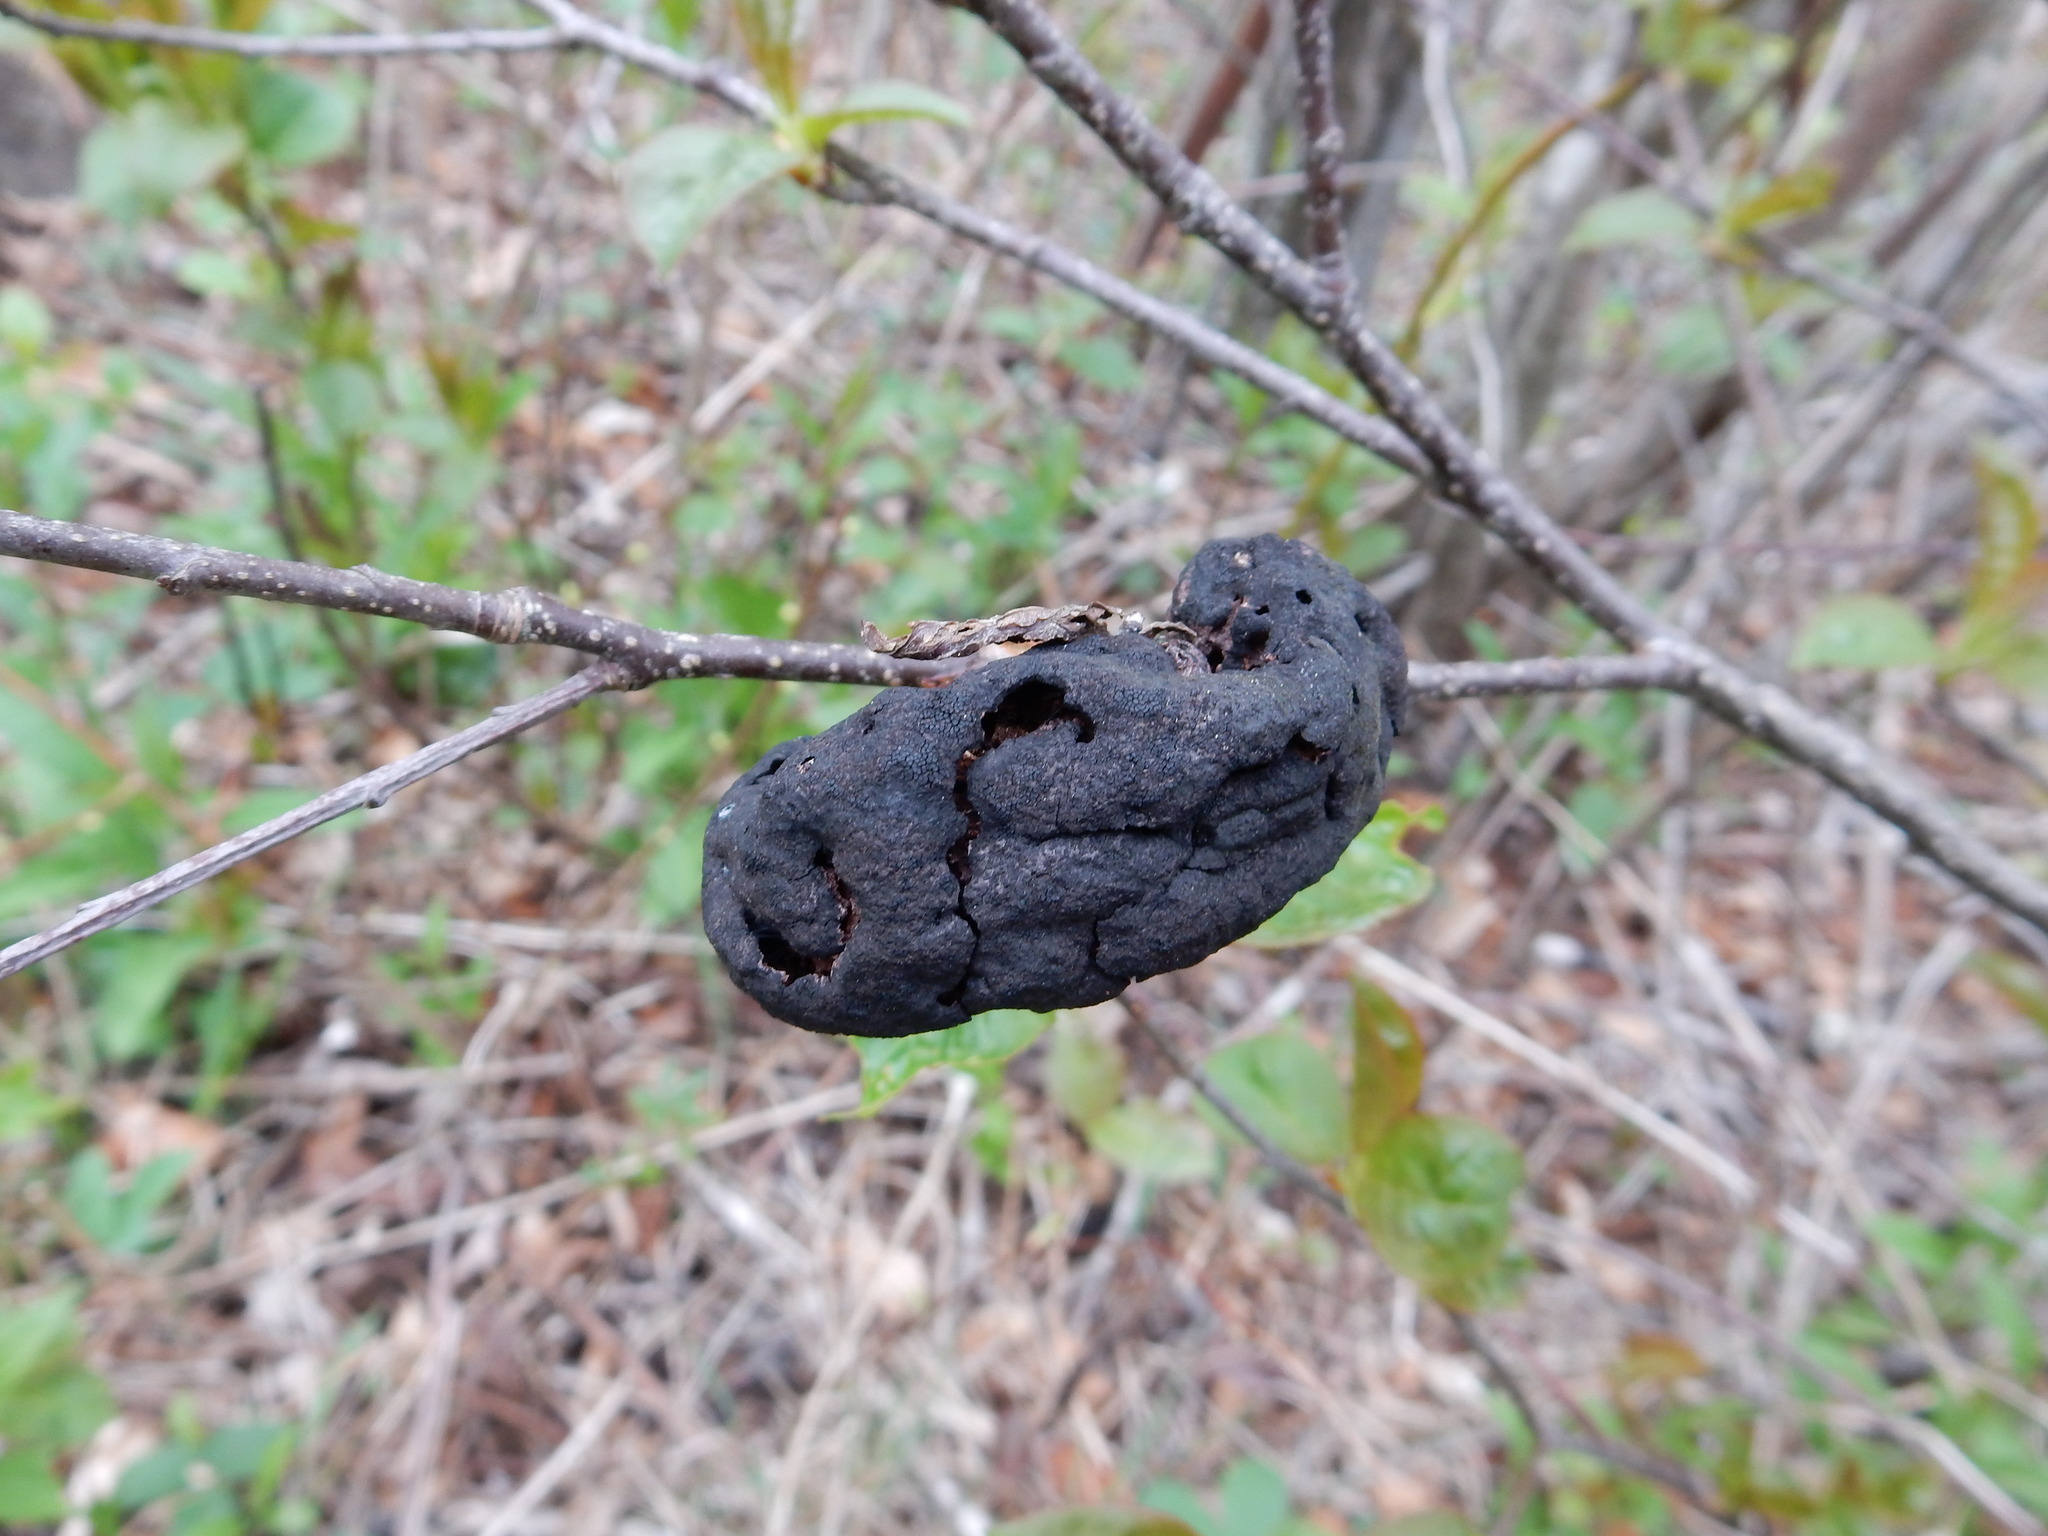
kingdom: Fungi
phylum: Ascomycota
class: Dothideomycetes
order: Venturiales
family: Venturiaceae
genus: Apiosporina
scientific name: Apiosporina morbosa
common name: Black knot
